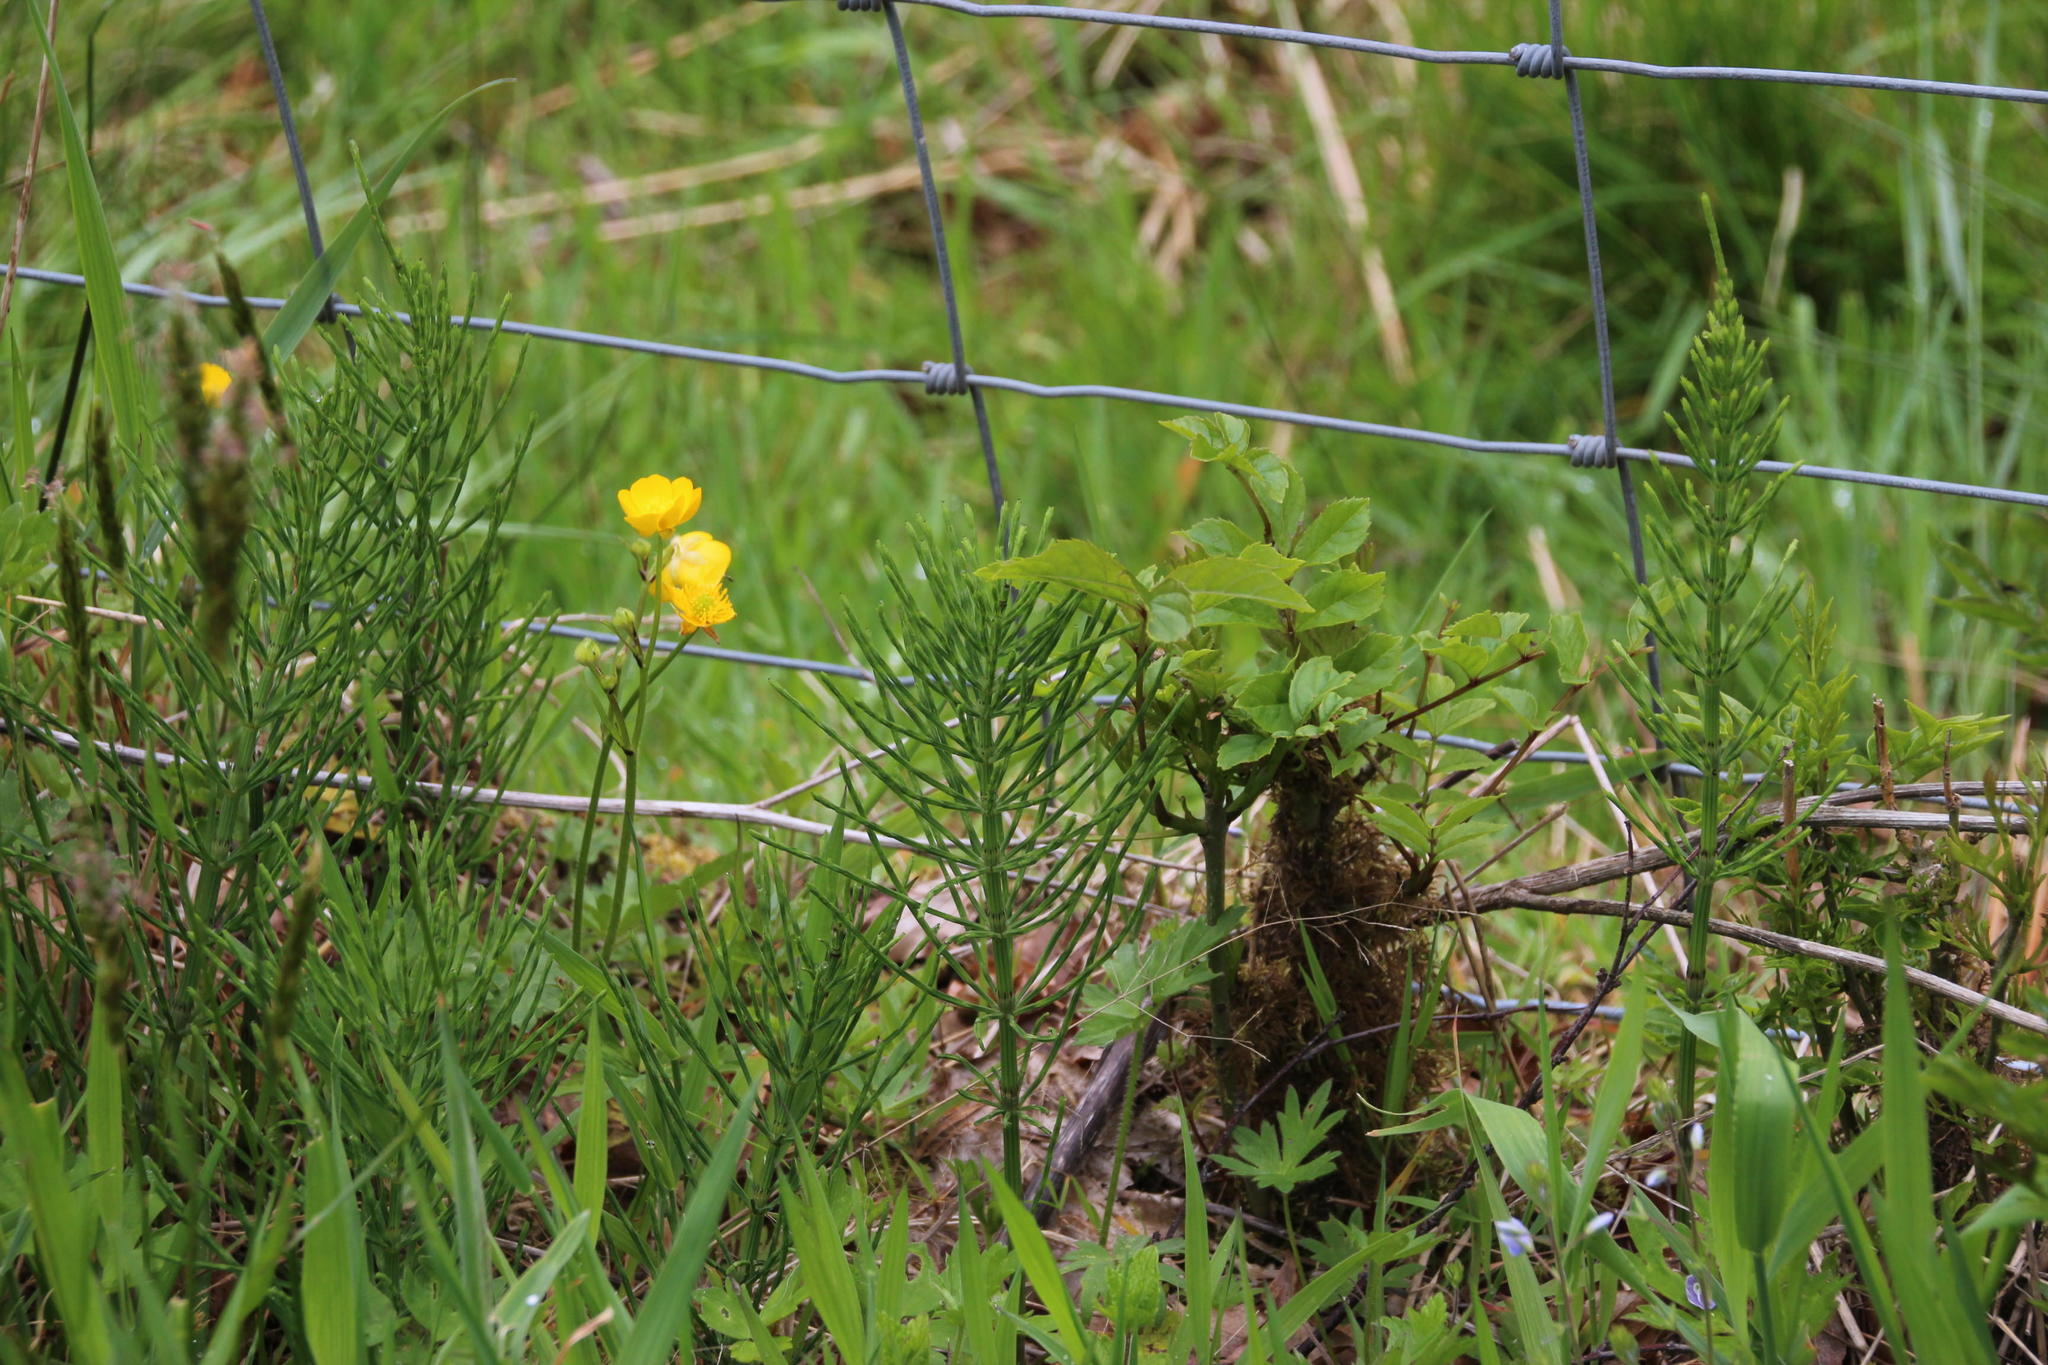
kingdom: Plantae
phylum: Tracheophyta
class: Polypodiopsida
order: Equisetales
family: Equisetaceae
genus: Equisetum
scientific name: Equisetum arvense
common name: Field horsetail
